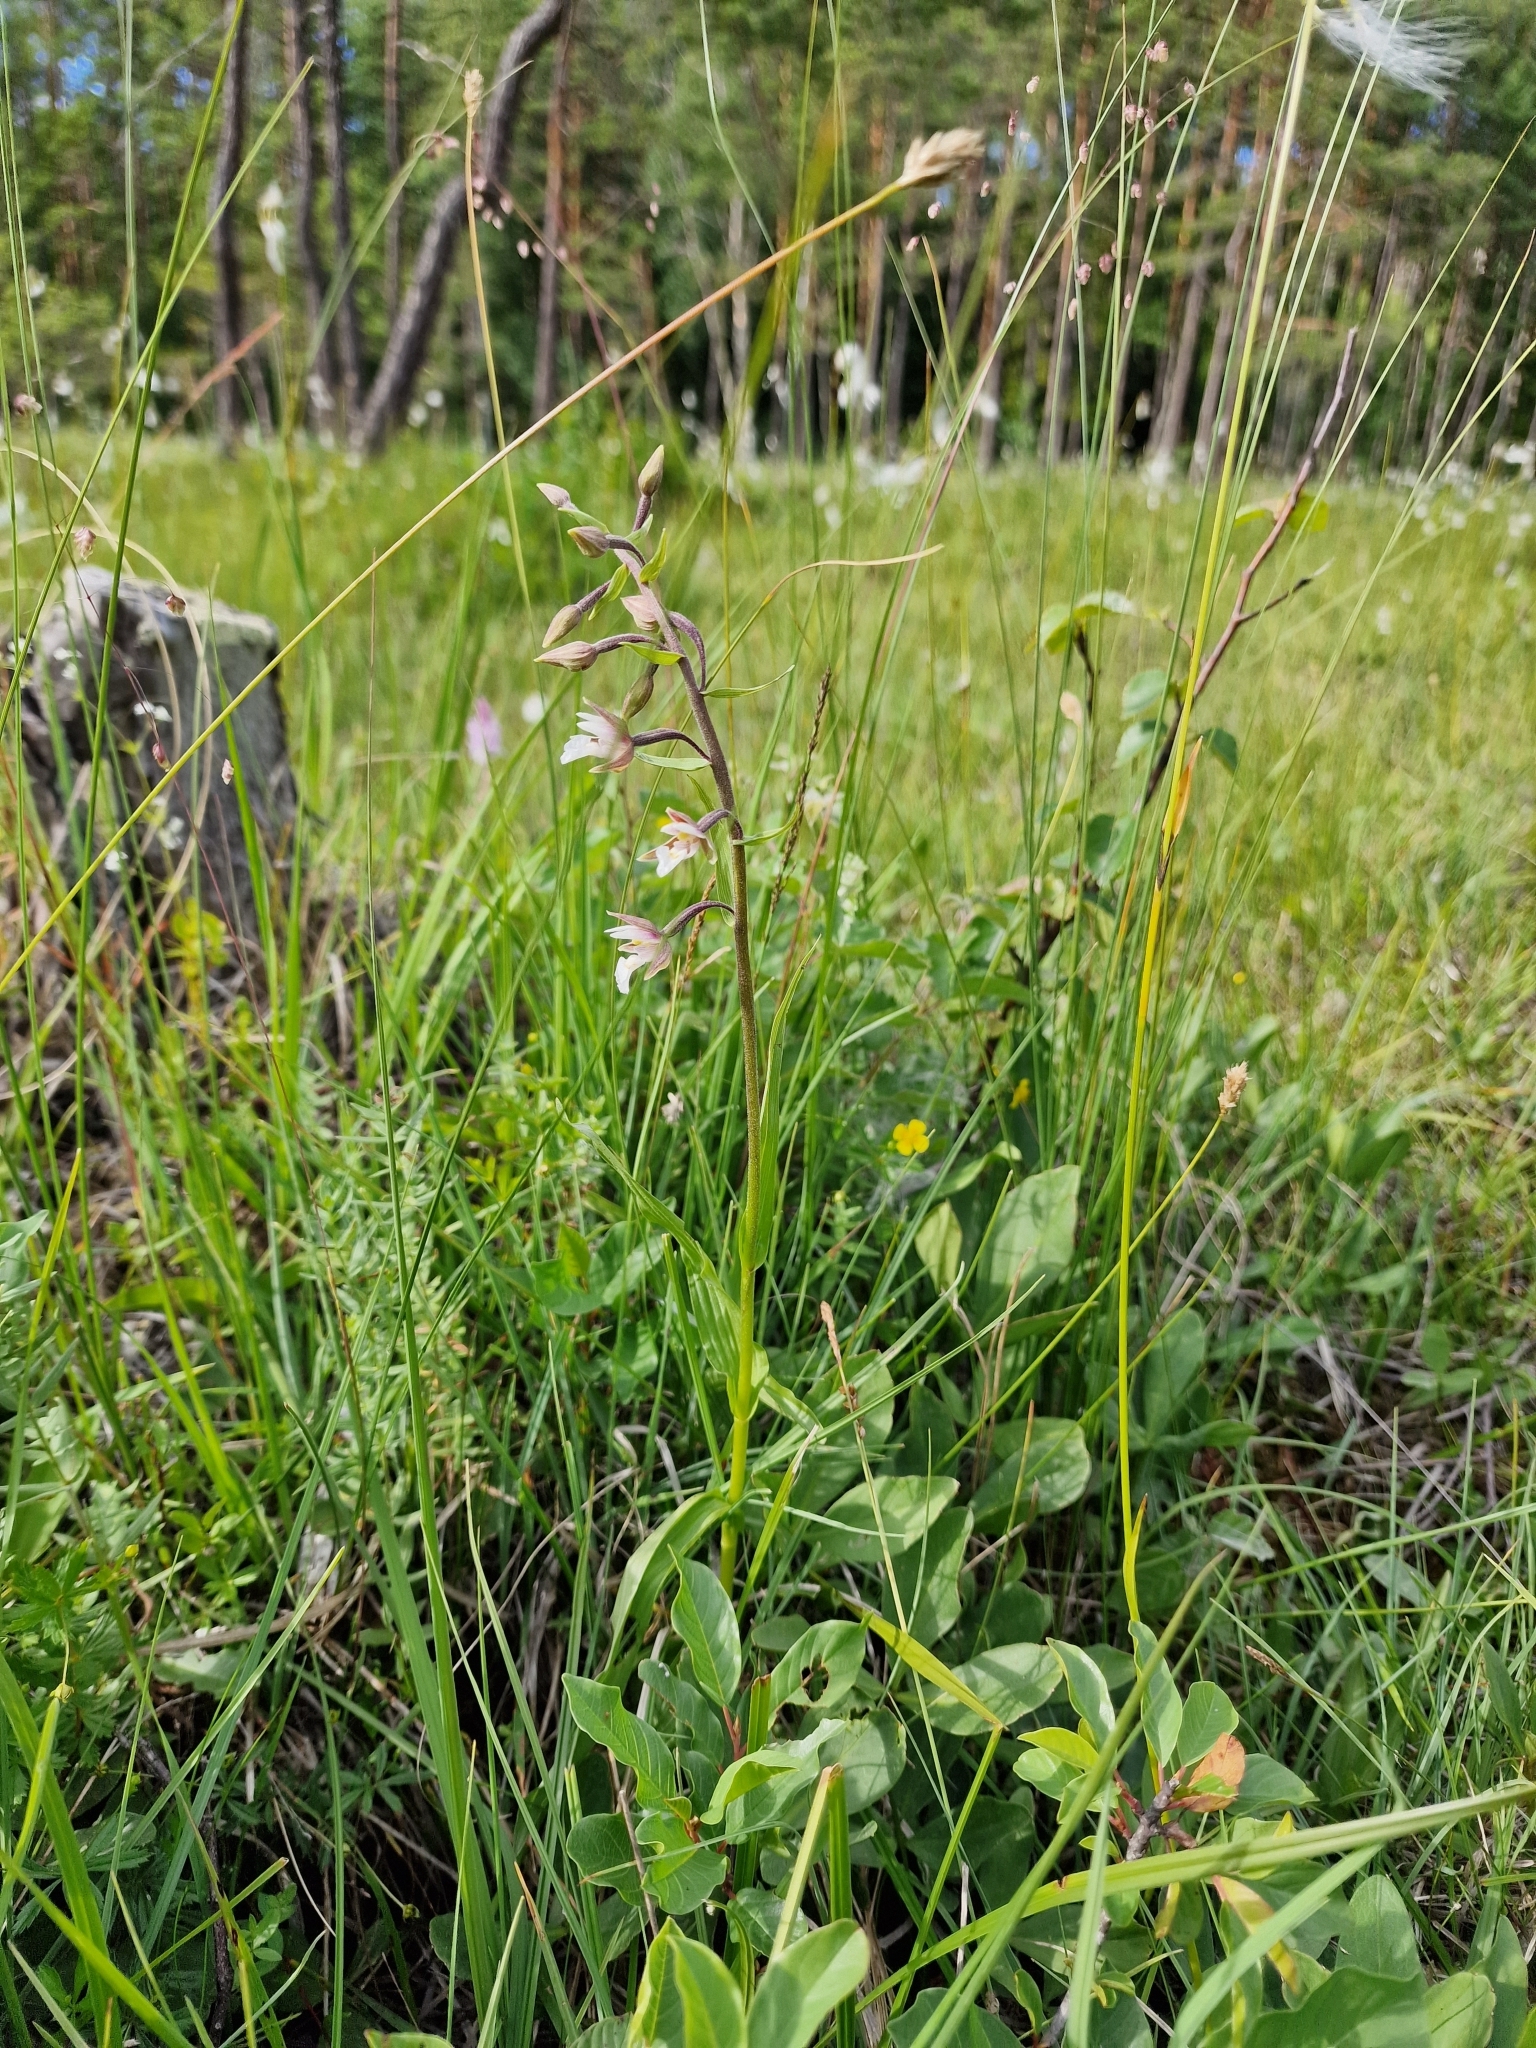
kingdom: Plantae
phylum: Tracheophyta
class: Liliopsida
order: Asparagales
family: Orchidaceae
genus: Epipactis
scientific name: Epipactis palustris
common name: Marsh helleborine
